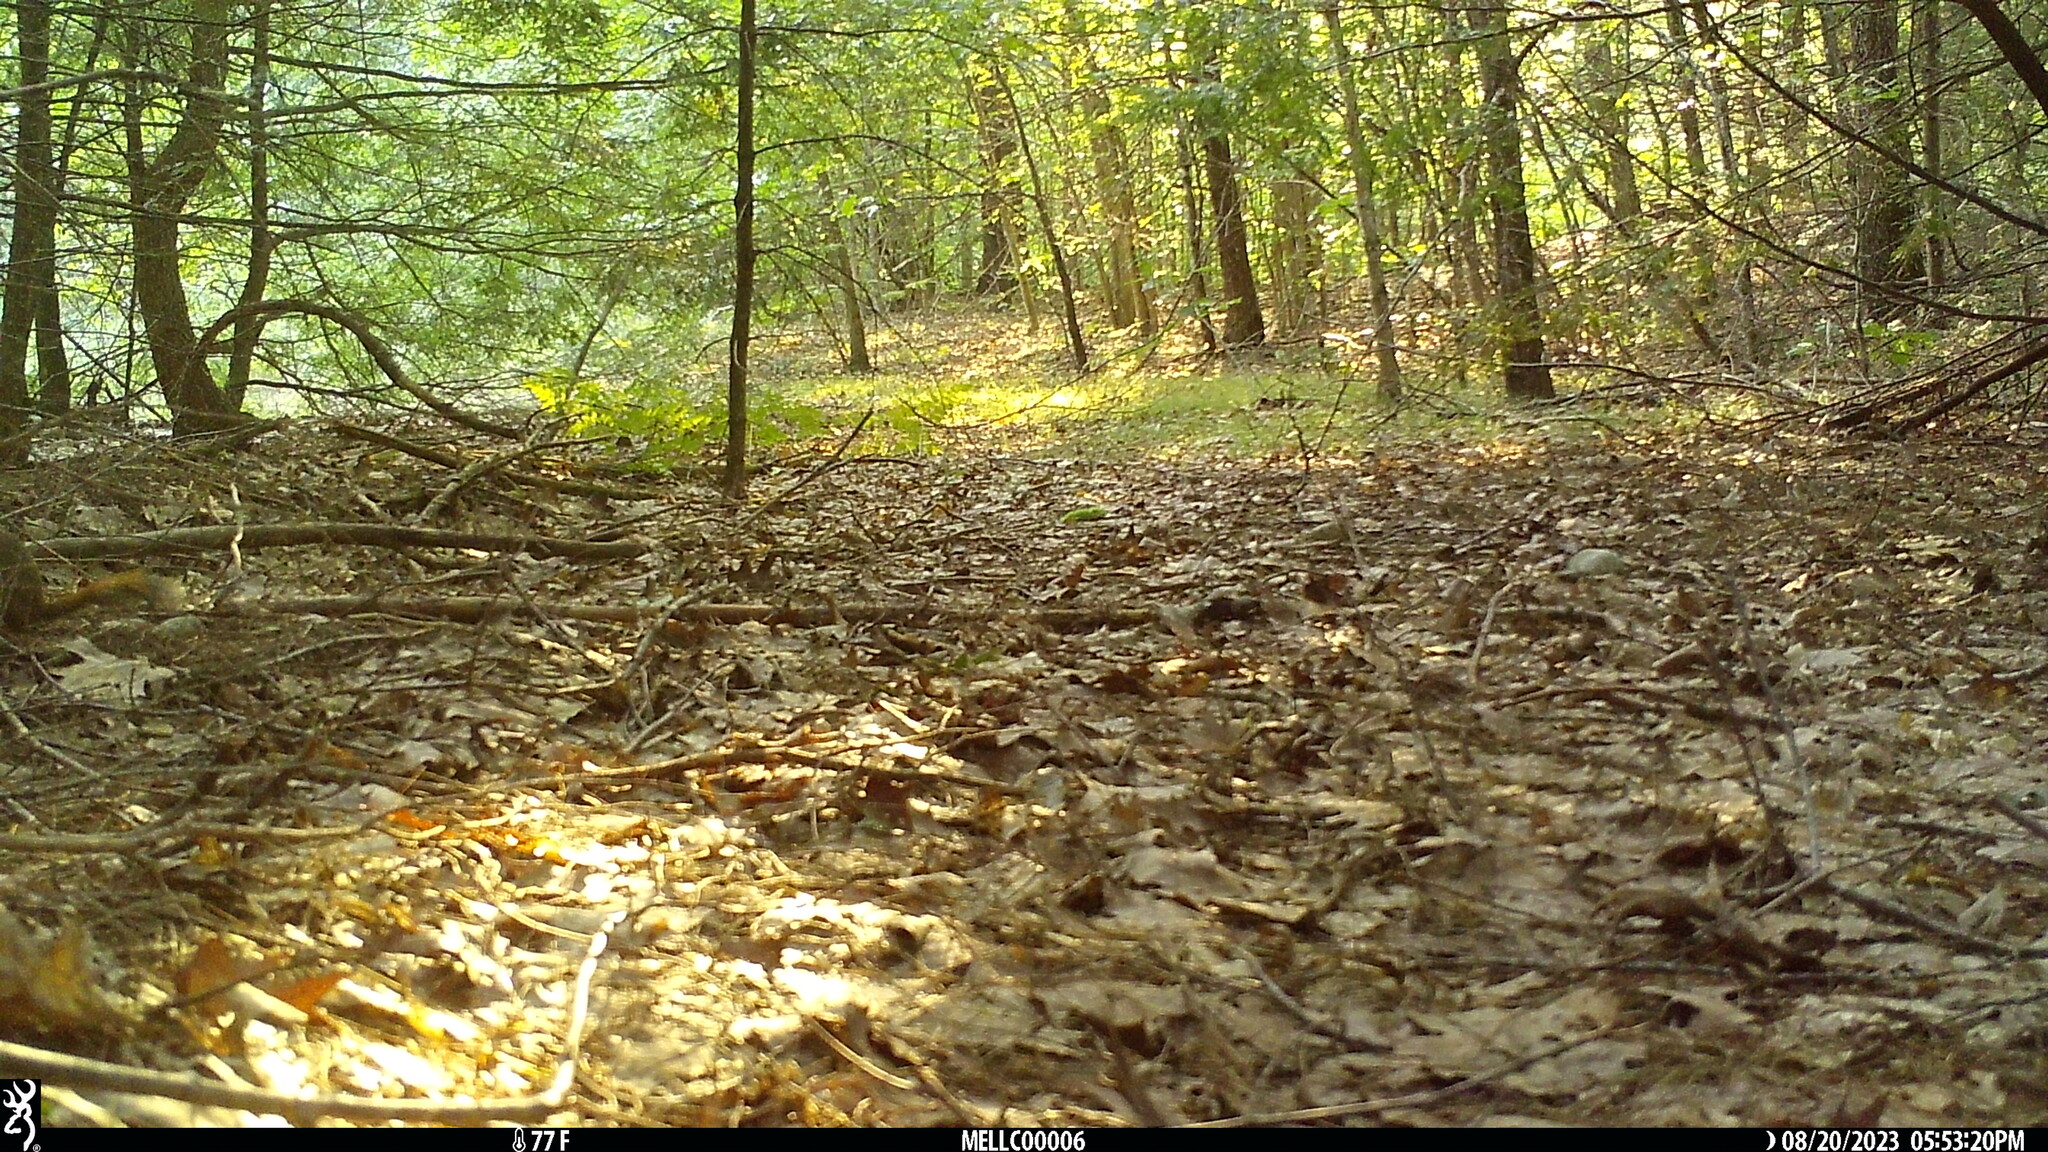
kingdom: Animalia
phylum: Chordata
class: Mammalia
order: Rodentia
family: Sciuridae
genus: Tamiasciurus
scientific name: Tamiasciurus hudsonicus
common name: Red squirrel
